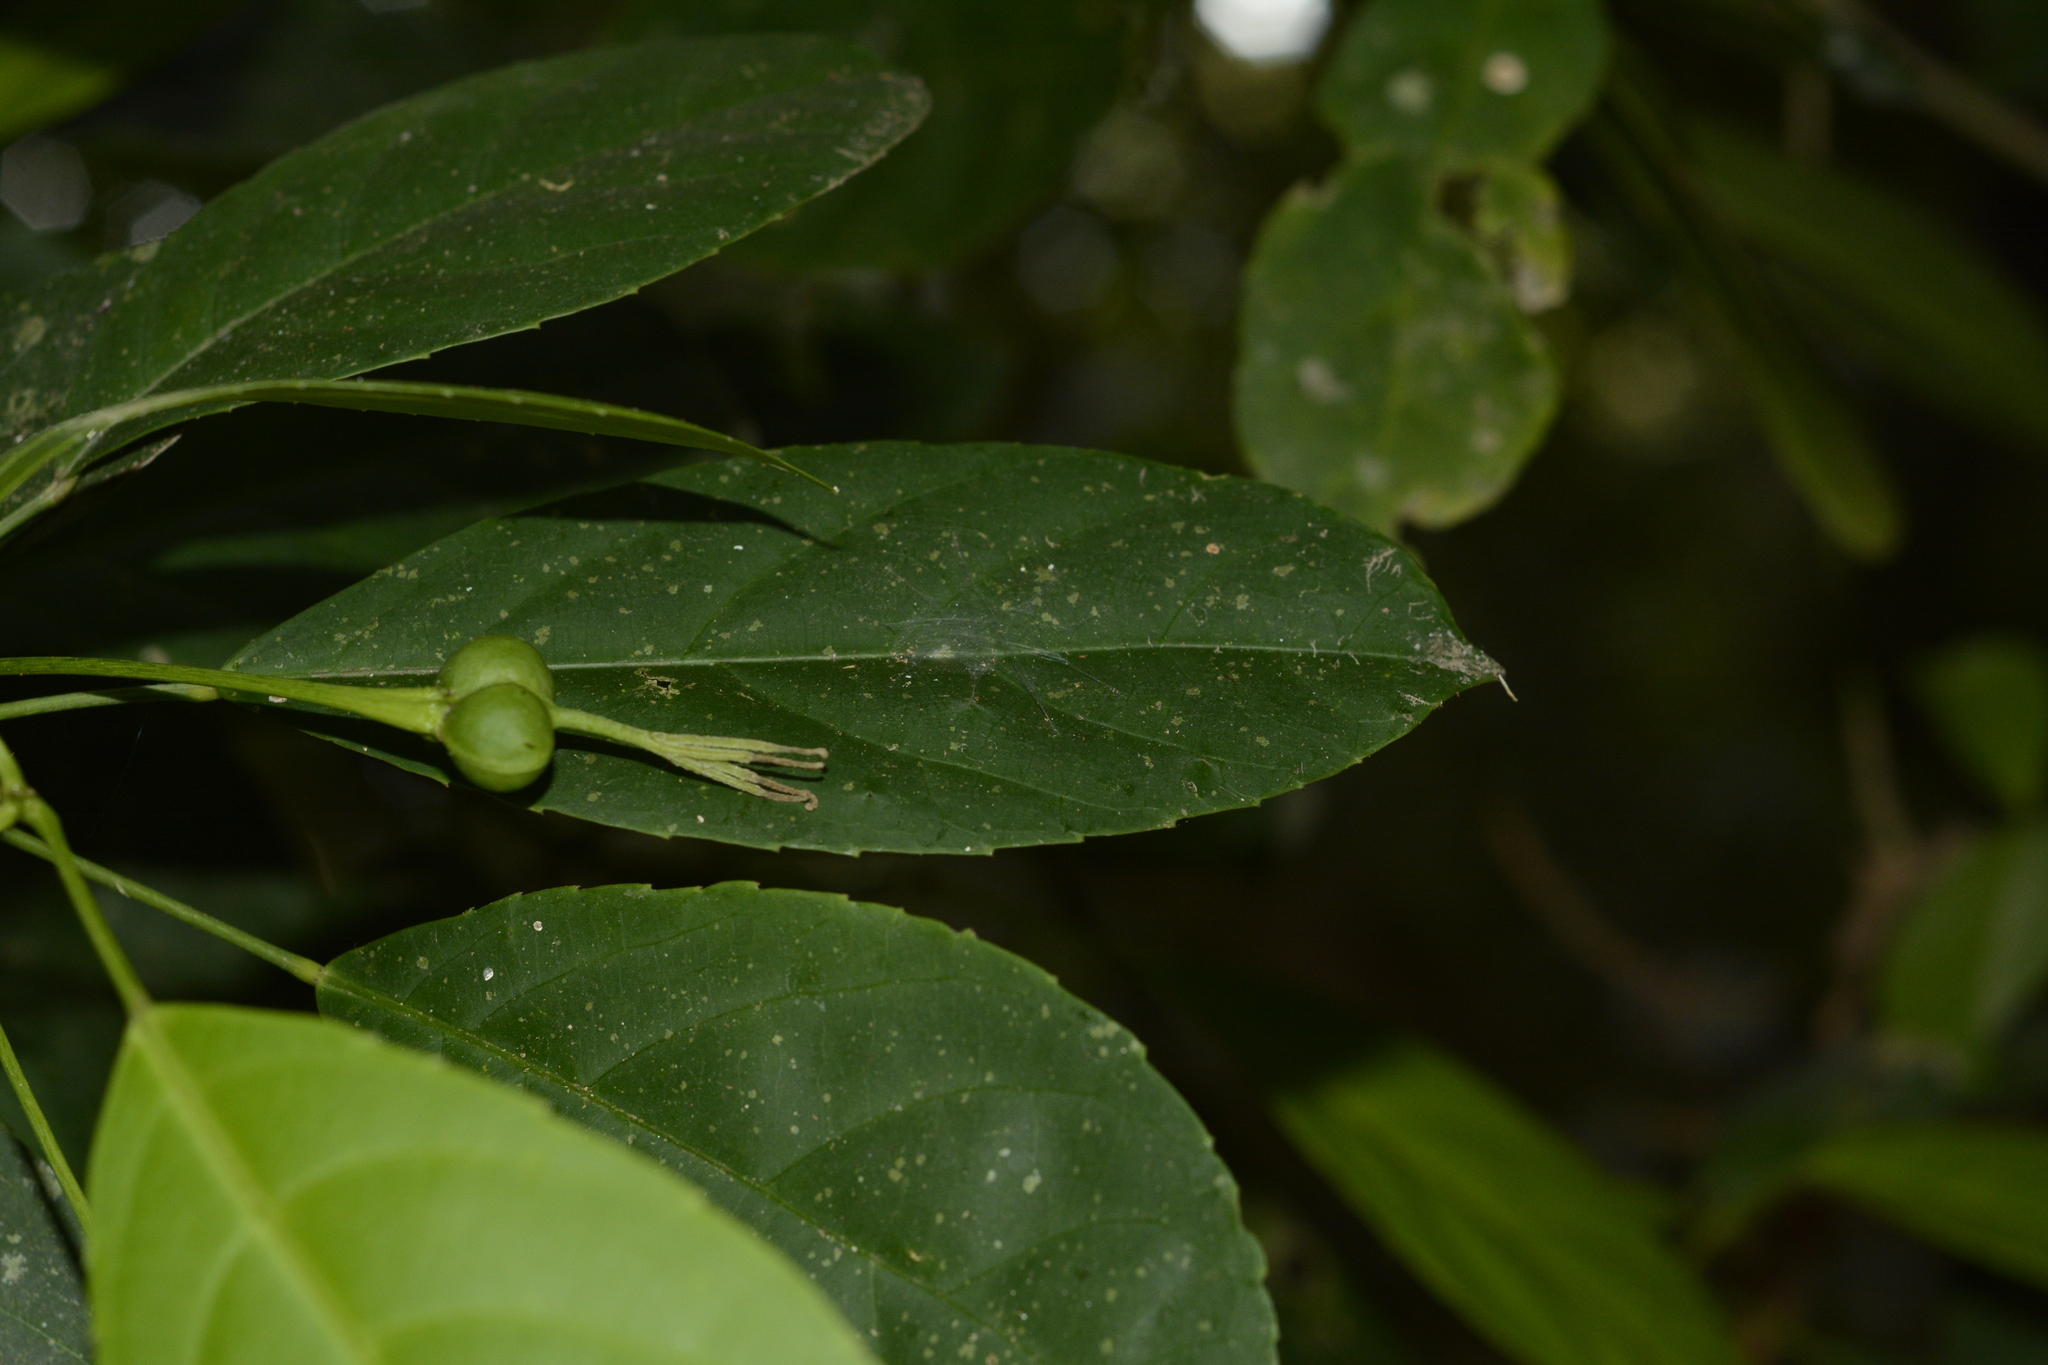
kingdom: Plantae
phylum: Tracheophyta
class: Magnoliopsida
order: Malpighiales
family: Euphorbiaceae
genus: Acalypha
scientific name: Acalypha spiciflora
